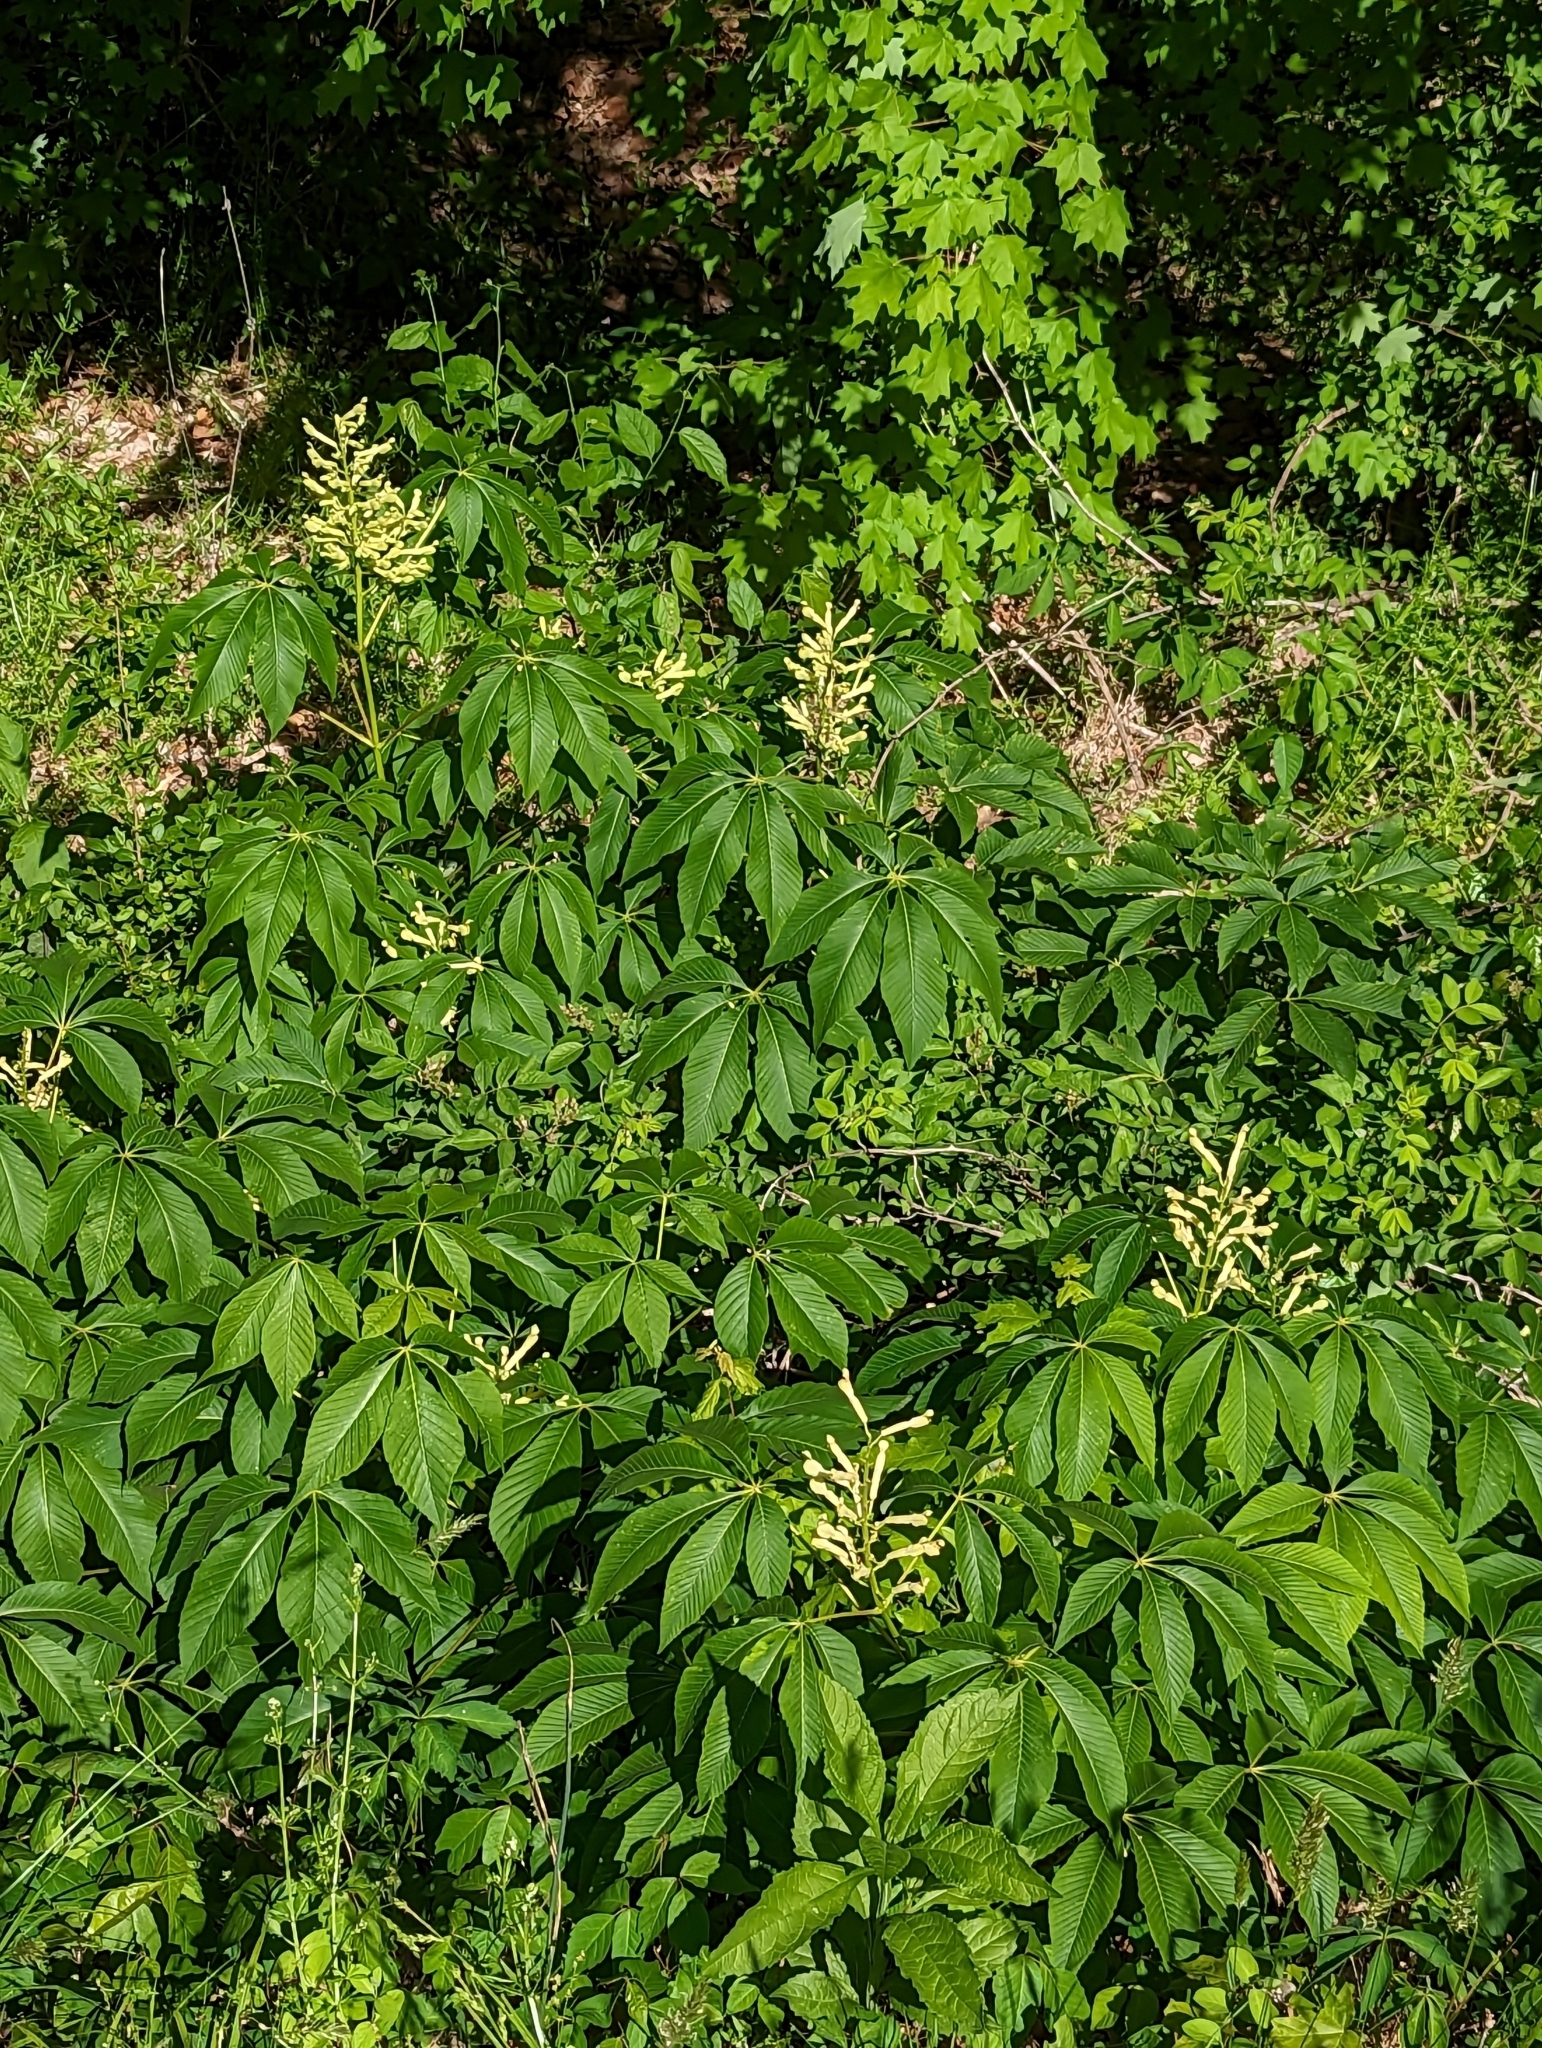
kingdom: Plantae
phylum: Tracheophyta
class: Magnoliopsida
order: Sapindales
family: Sapindaceae
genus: Aesculus
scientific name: Aesculus sylvatica
